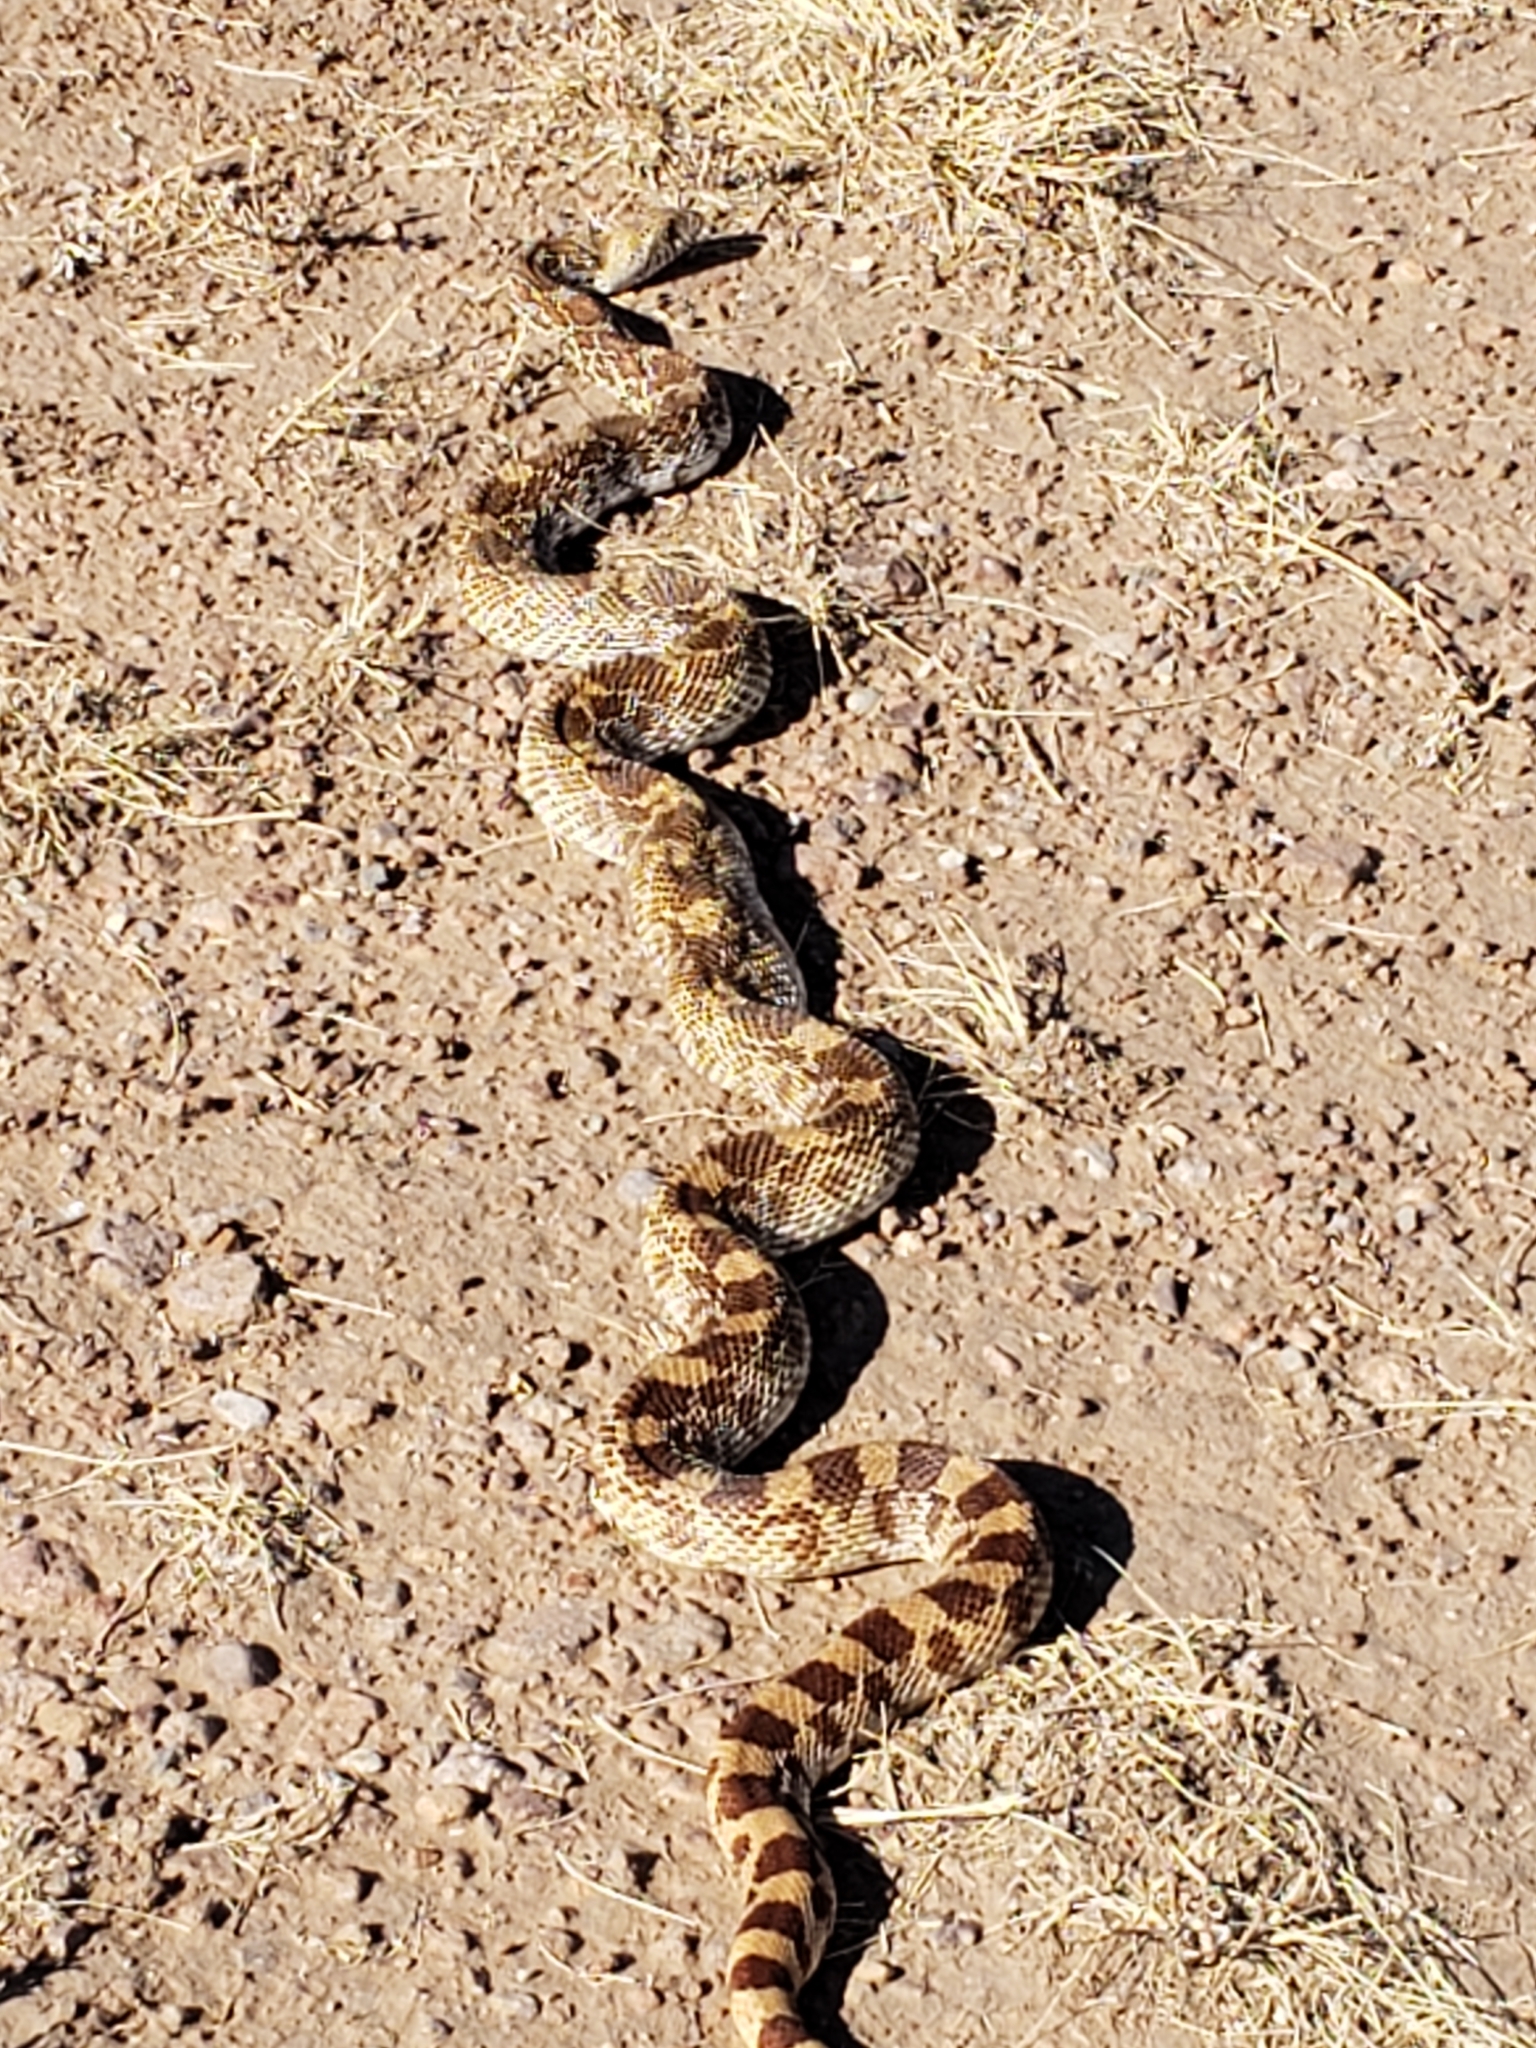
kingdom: Animalia
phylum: Chordata
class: Squamata
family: Colubridae
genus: Pituophis
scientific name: Pituophis catenifer
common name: Gopher snake
